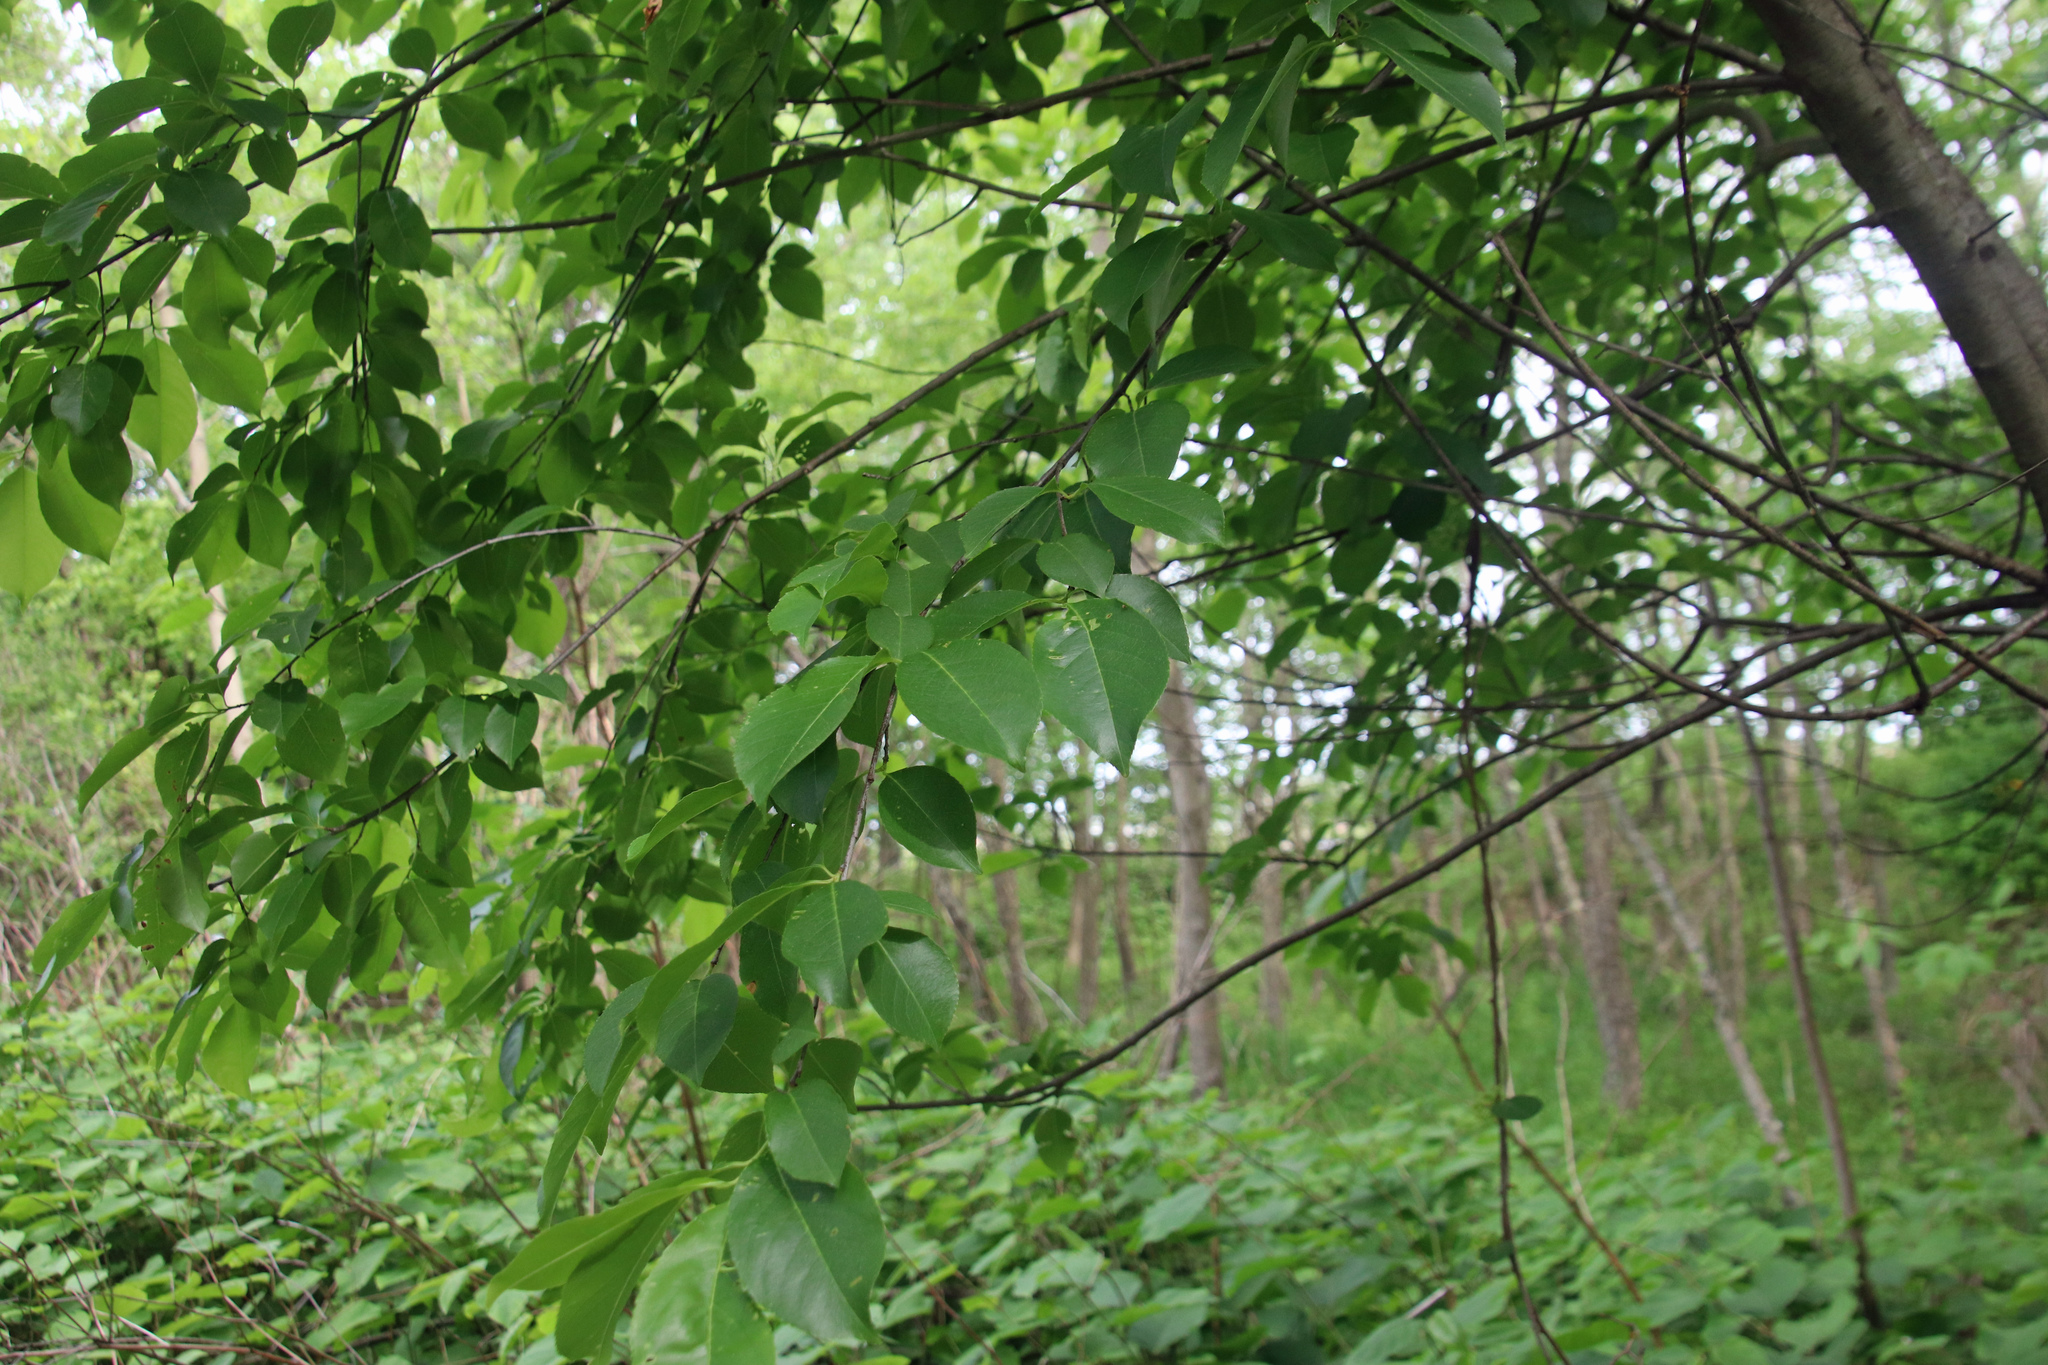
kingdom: Plantae
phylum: Tracheophyta
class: Magnoliopsida
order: Rosales
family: Rosaceae
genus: Prunus
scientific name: Prunus serotina
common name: Black cherry
